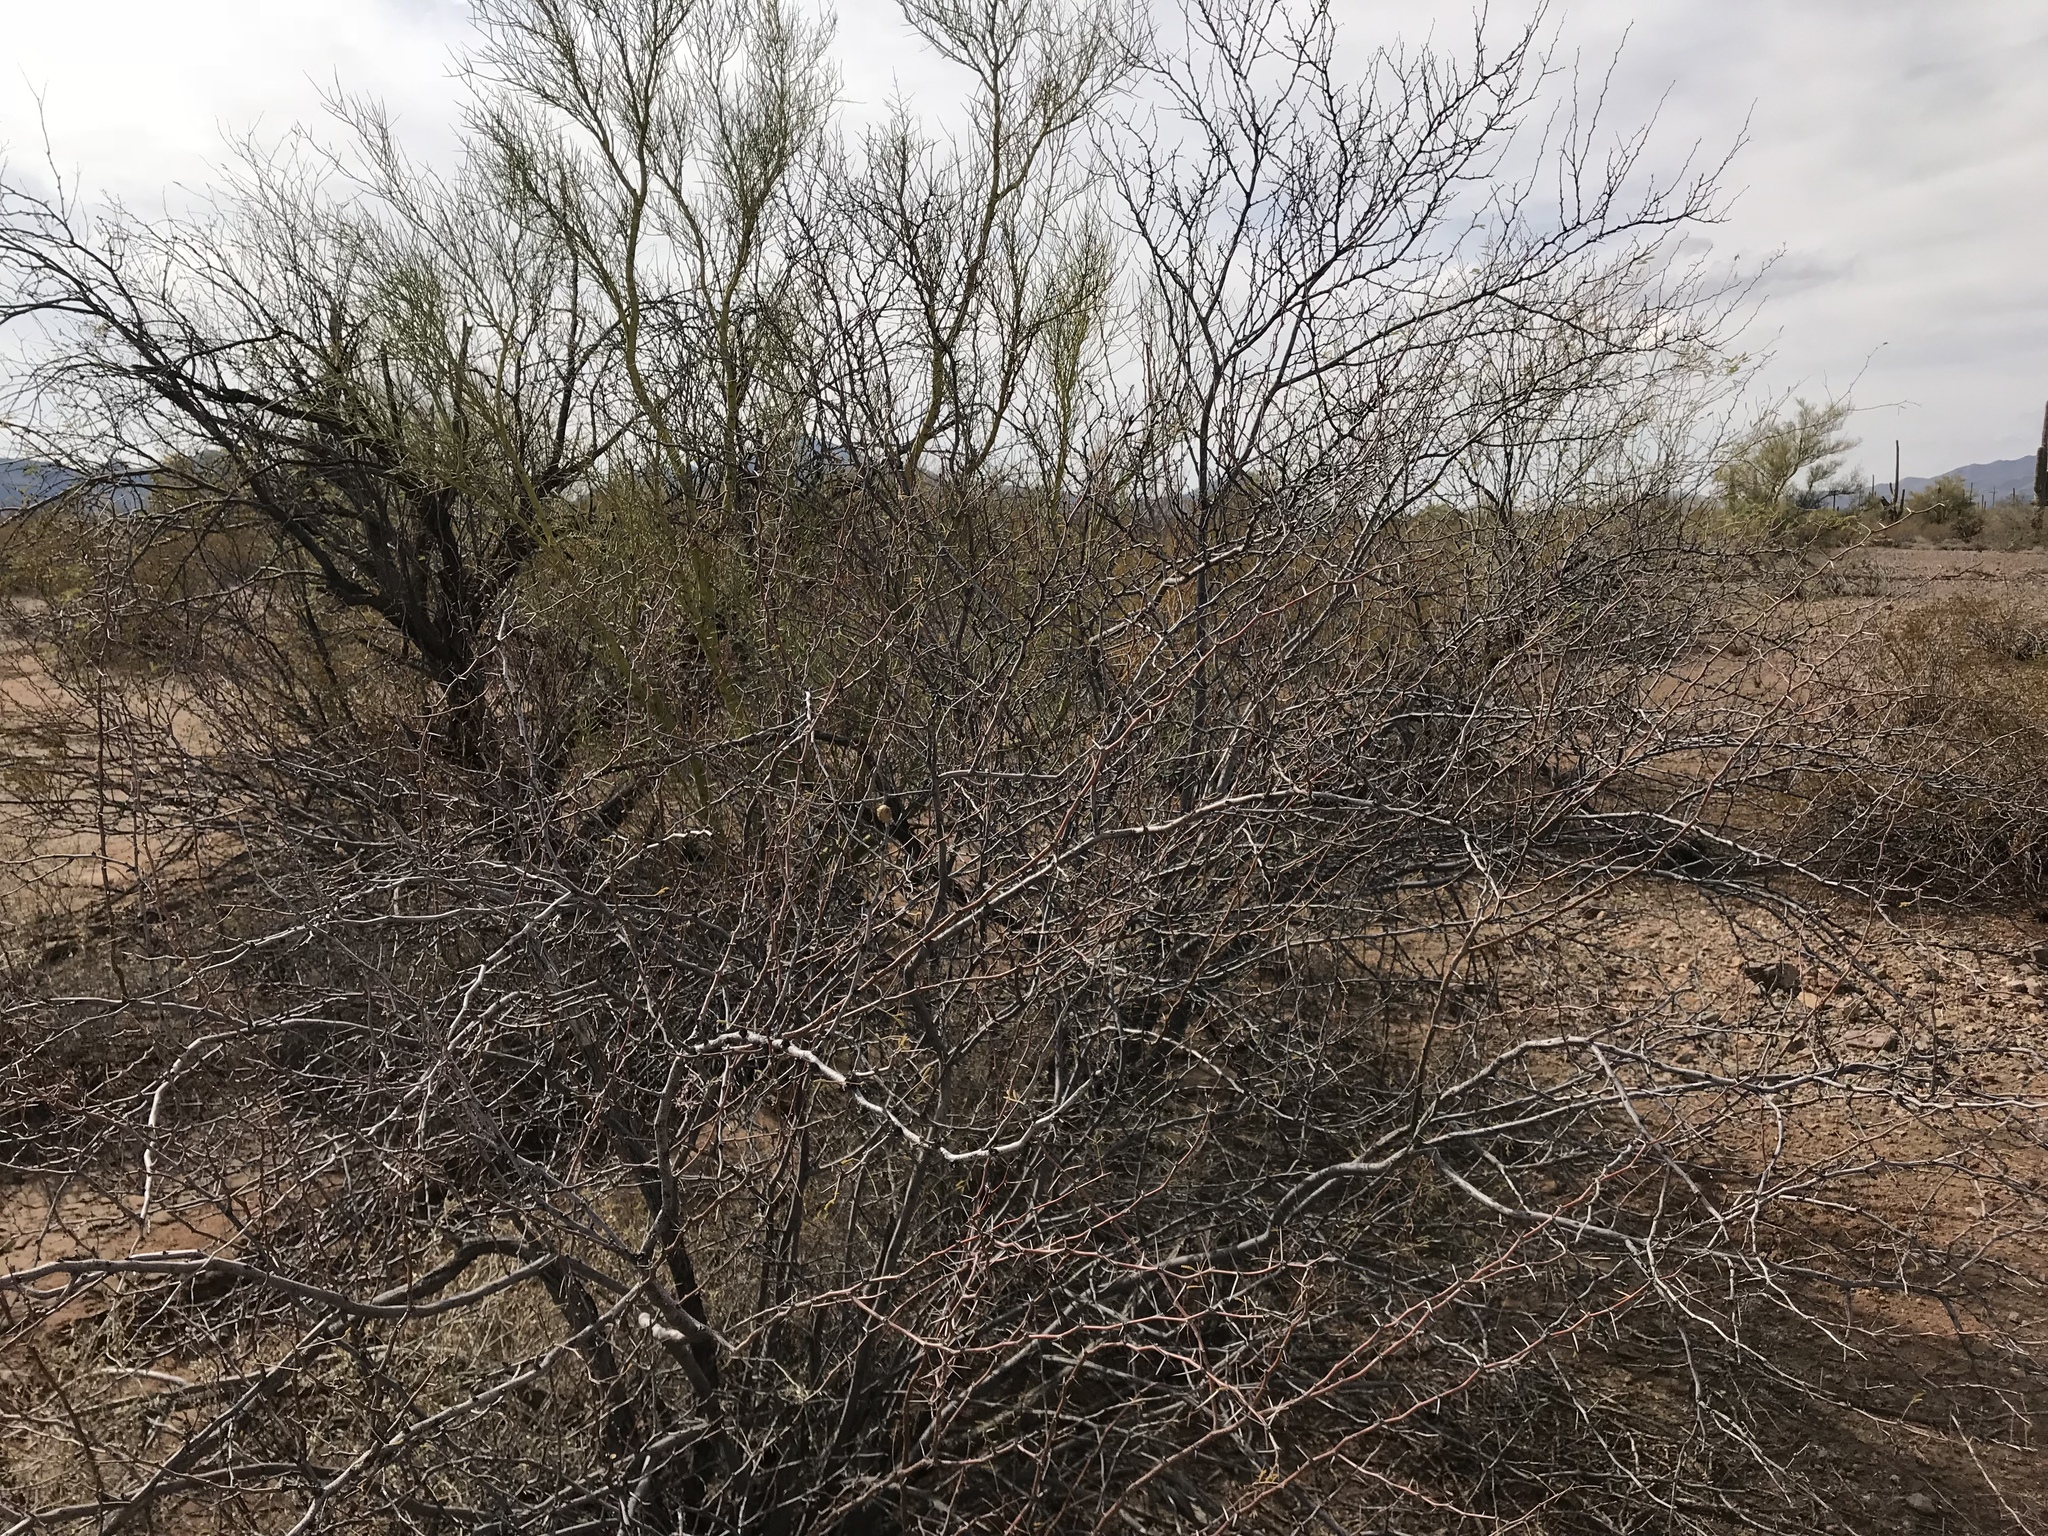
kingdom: Plantae
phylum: Tracheophyta
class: Magnoliopsida
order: Fabales
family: Fabaceae
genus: Vachellia
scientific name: Vachellia constricta
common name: Mescat acacia
